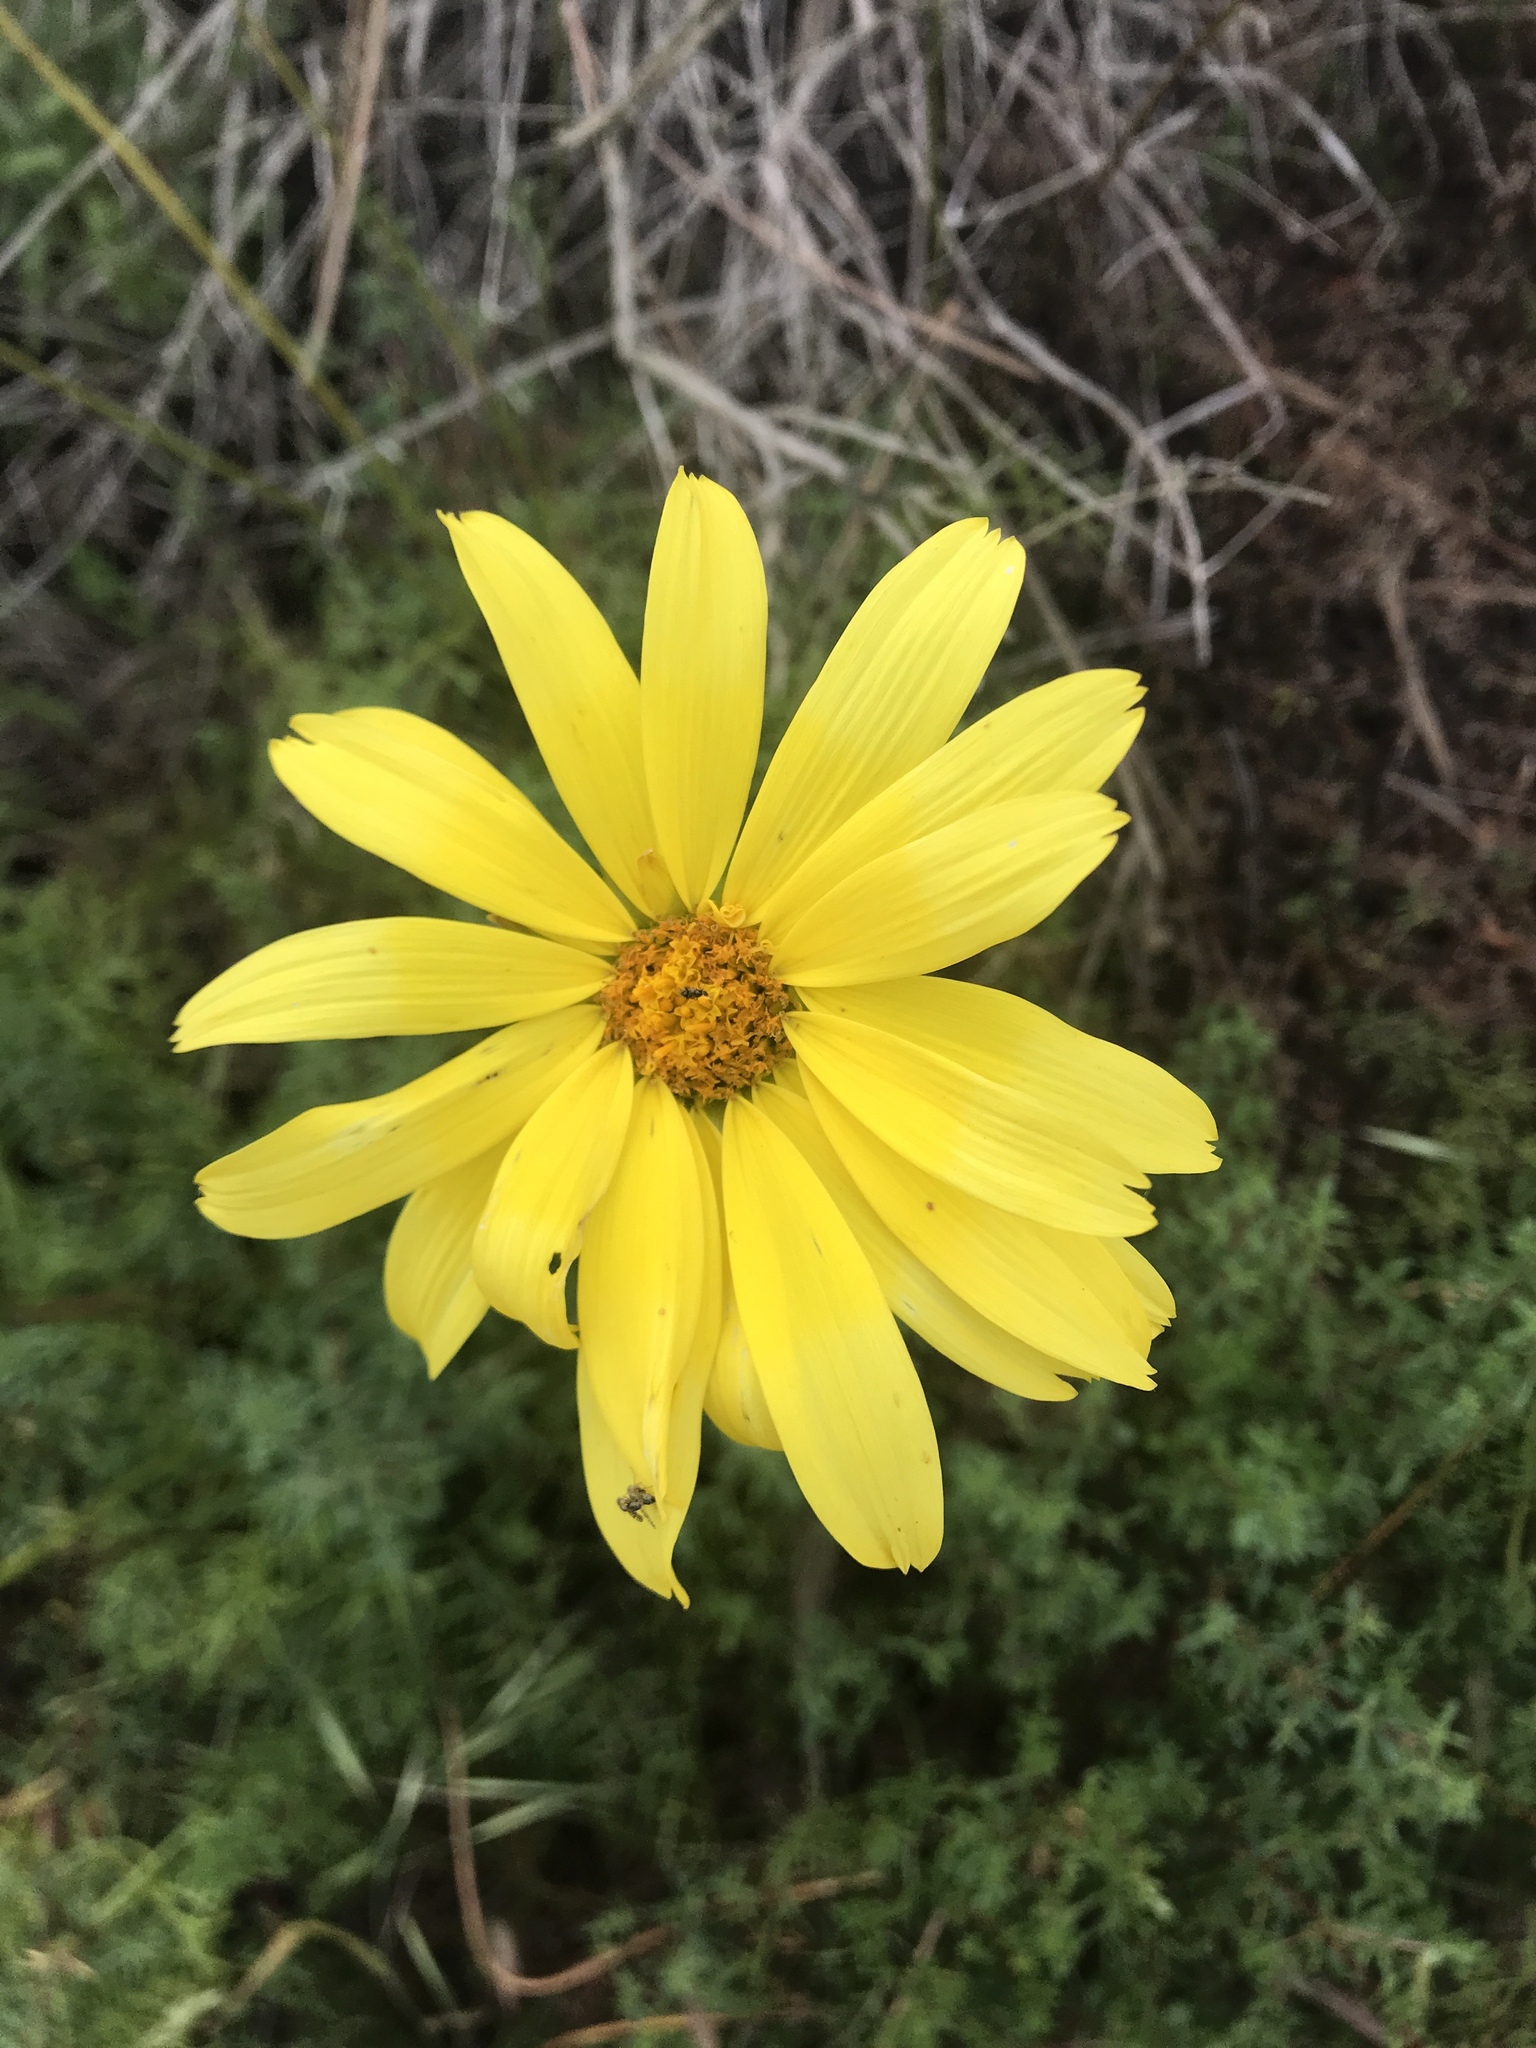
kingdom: Plantae
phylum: Tracheophyta
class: Magnoliopsida
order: Asterales
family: Asteraceae
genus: Coreopsis
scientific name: Coreopsis maritima
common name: Sea-dahlia
